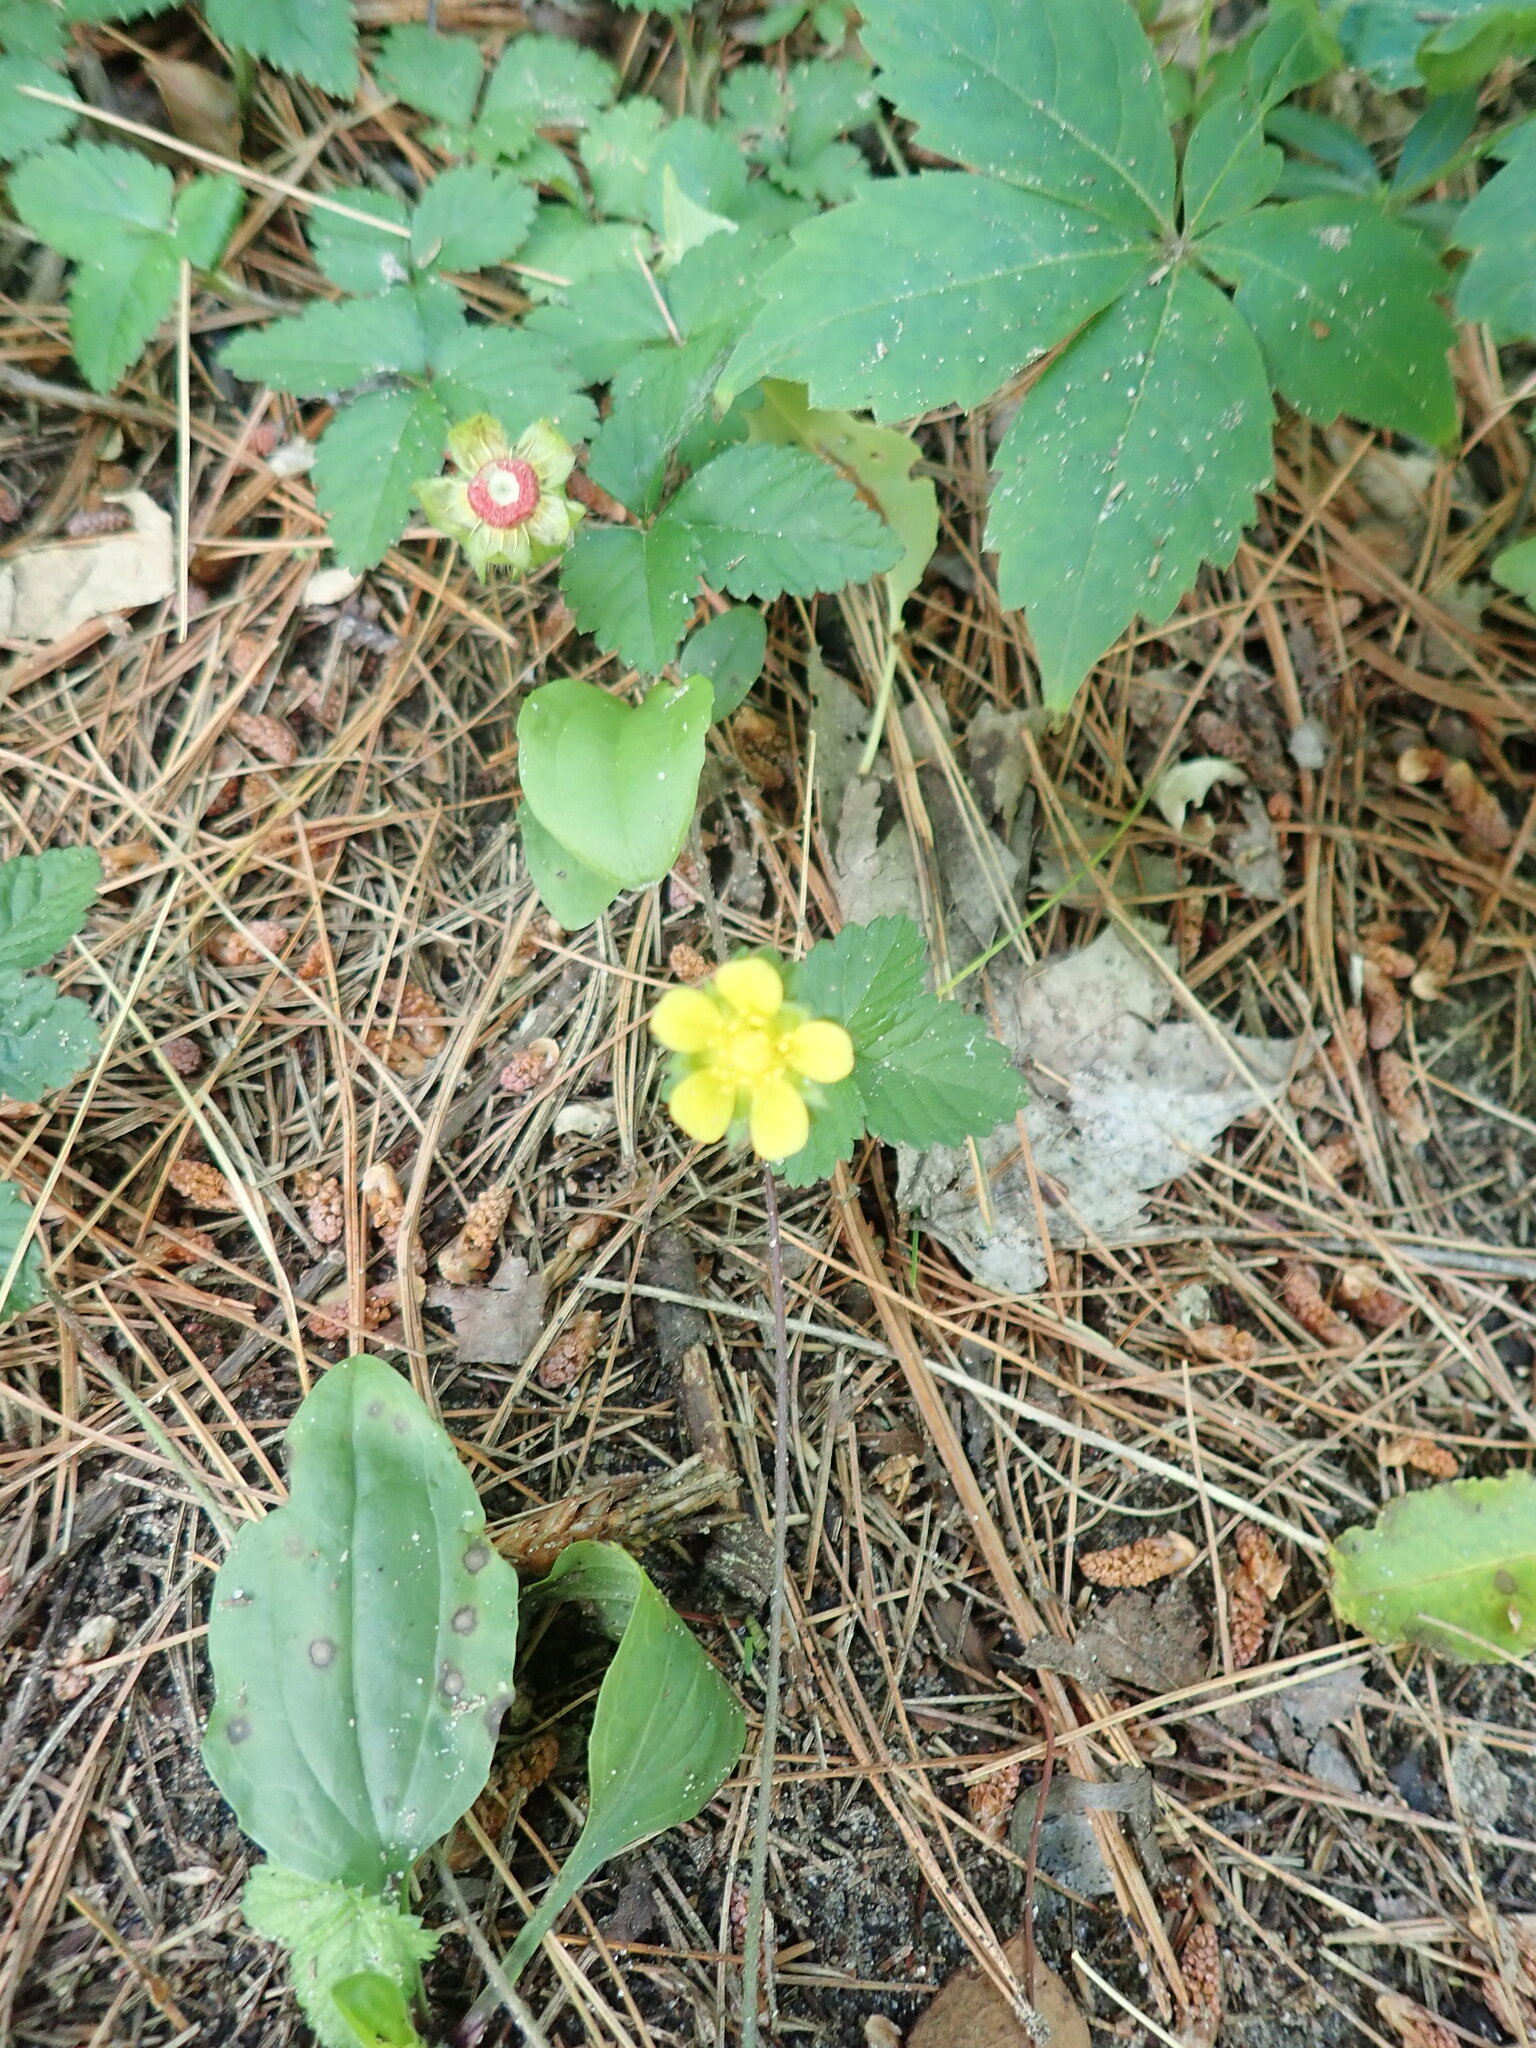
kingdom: Plantae
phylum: Tracheophyta
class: Magnoliopsida
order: Rosales
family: Rosaceae
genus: Potentilla
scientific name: Potentilla indica
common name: Yellow-flowered strawberry
